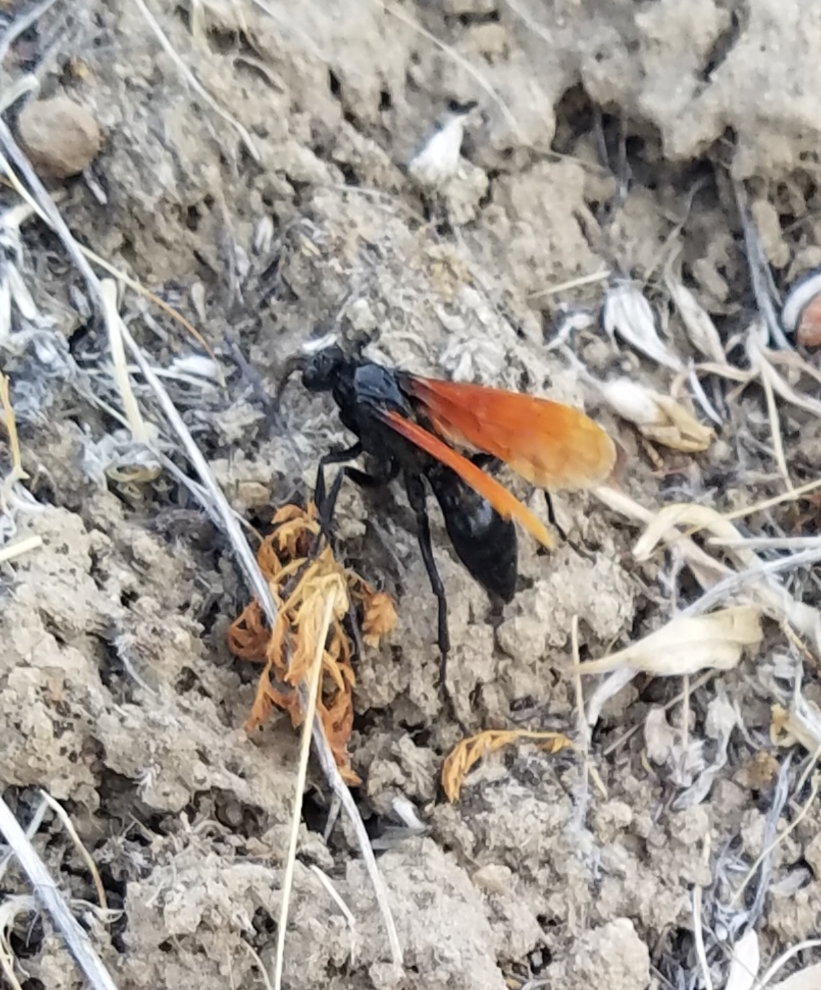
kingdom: Animalia
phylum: Arthropoda
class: Insecta
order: Hymenoptera
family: Pompilidae
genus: Chirodamus
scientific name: Chirodamus pyrrhomelas
